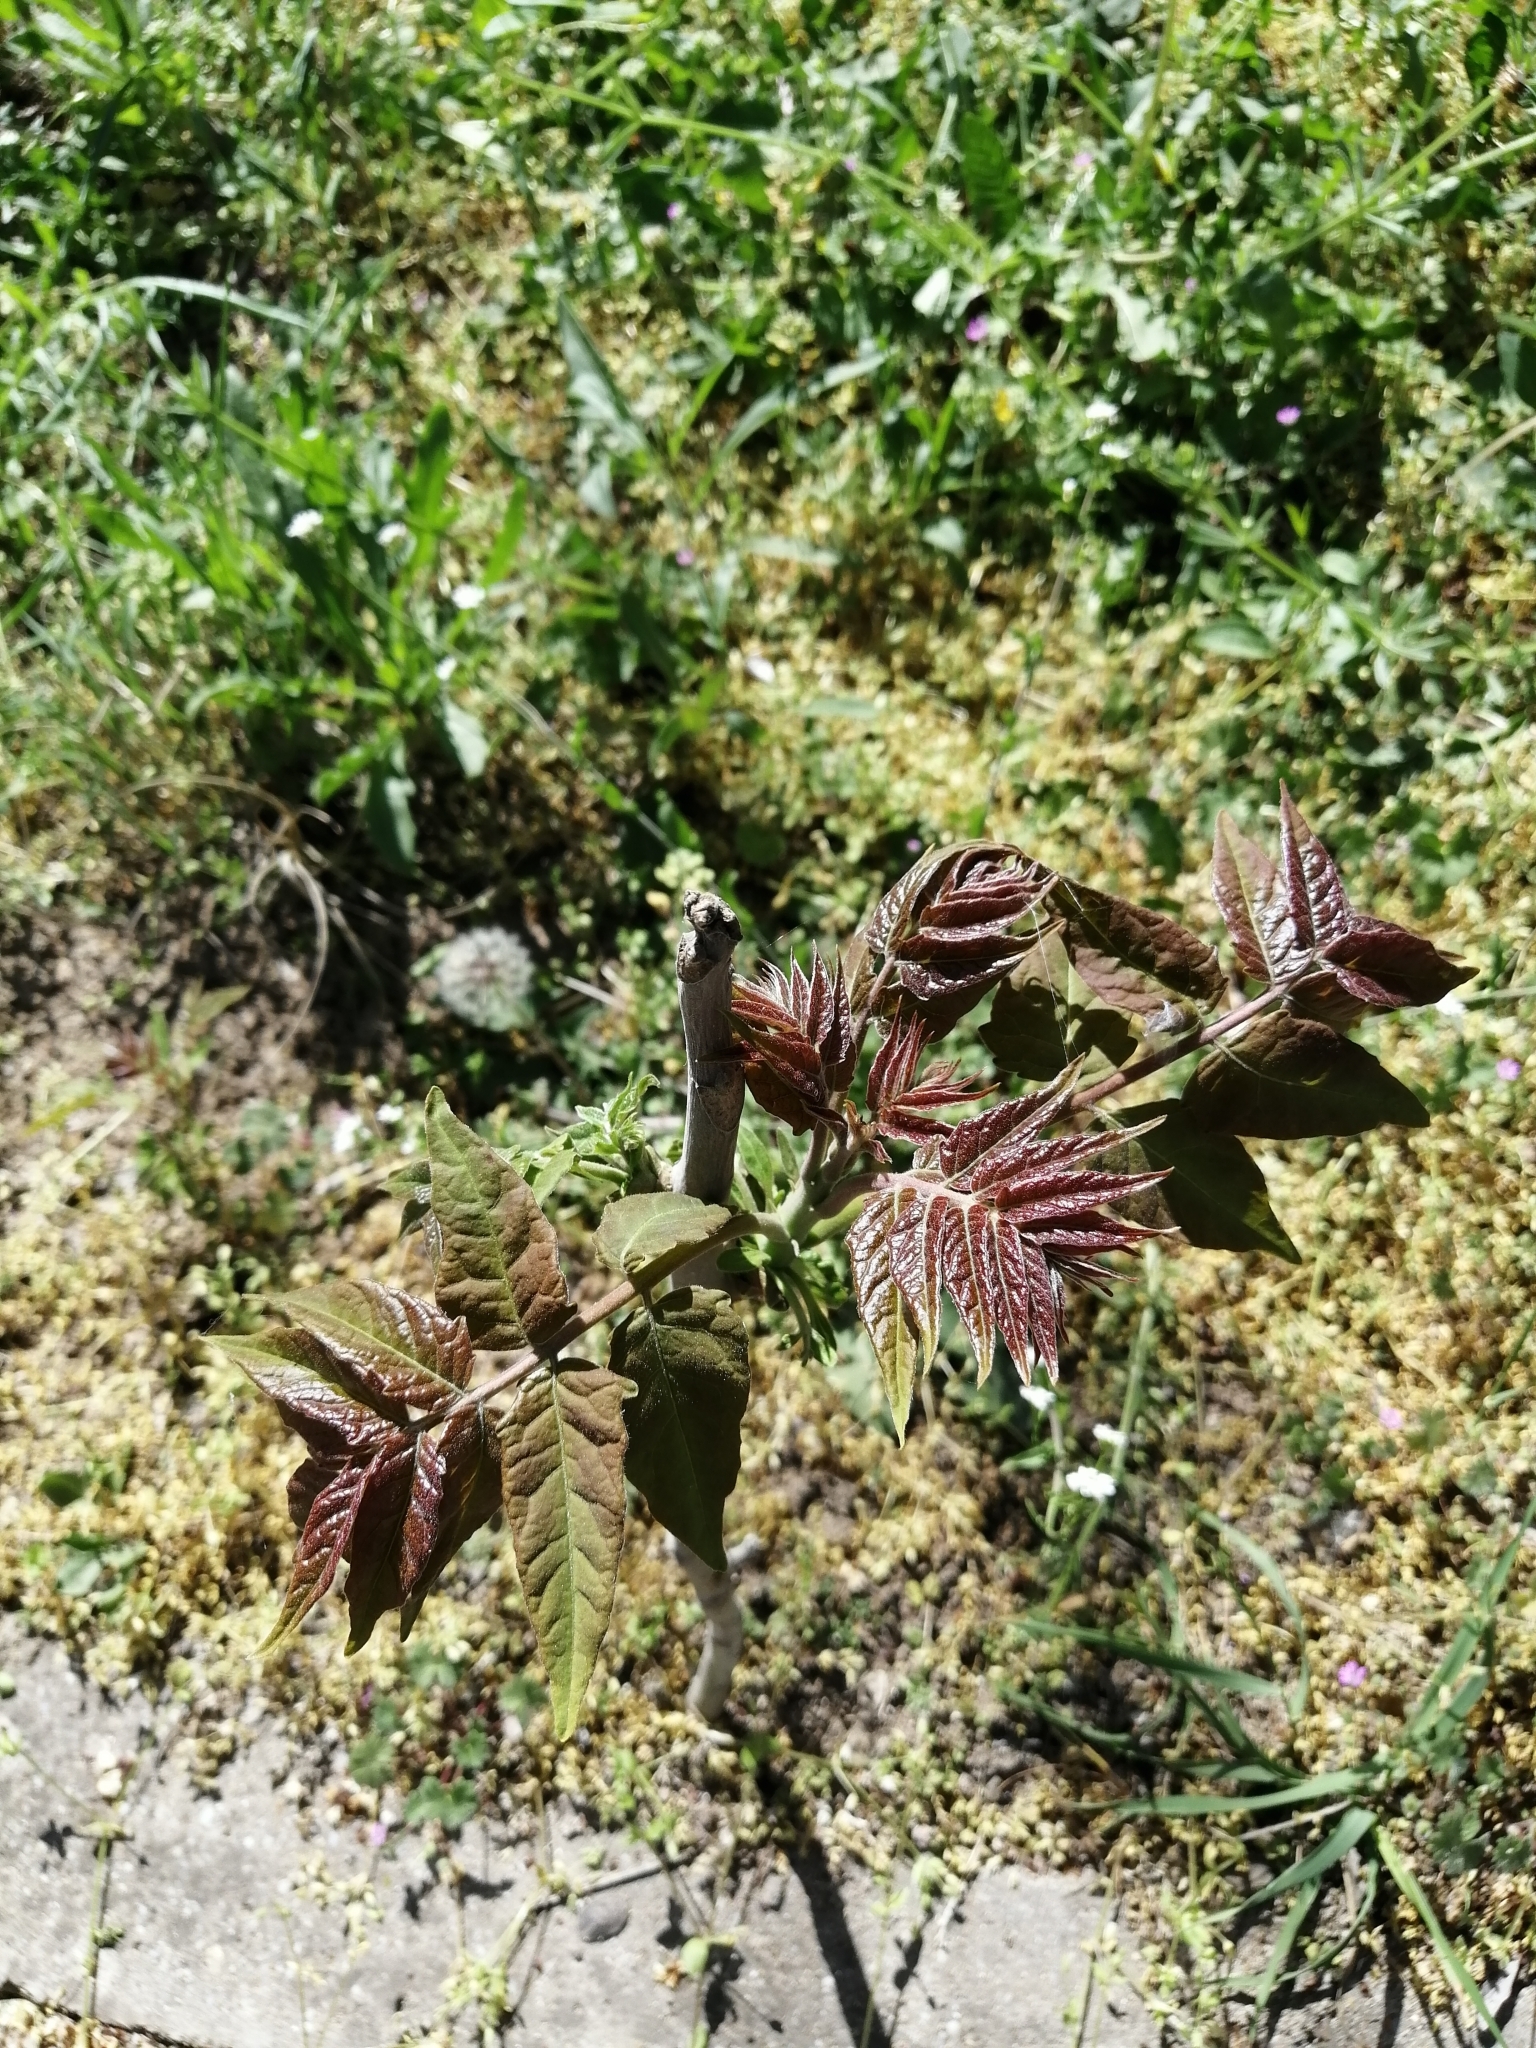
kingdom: Plantae
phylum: Tracheophyta
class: Magnoliopsida
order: Sapindales
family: Simaroubaceae
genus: Ailanthus
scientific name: Ailanthus altissima
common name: Tree-of-heaven
